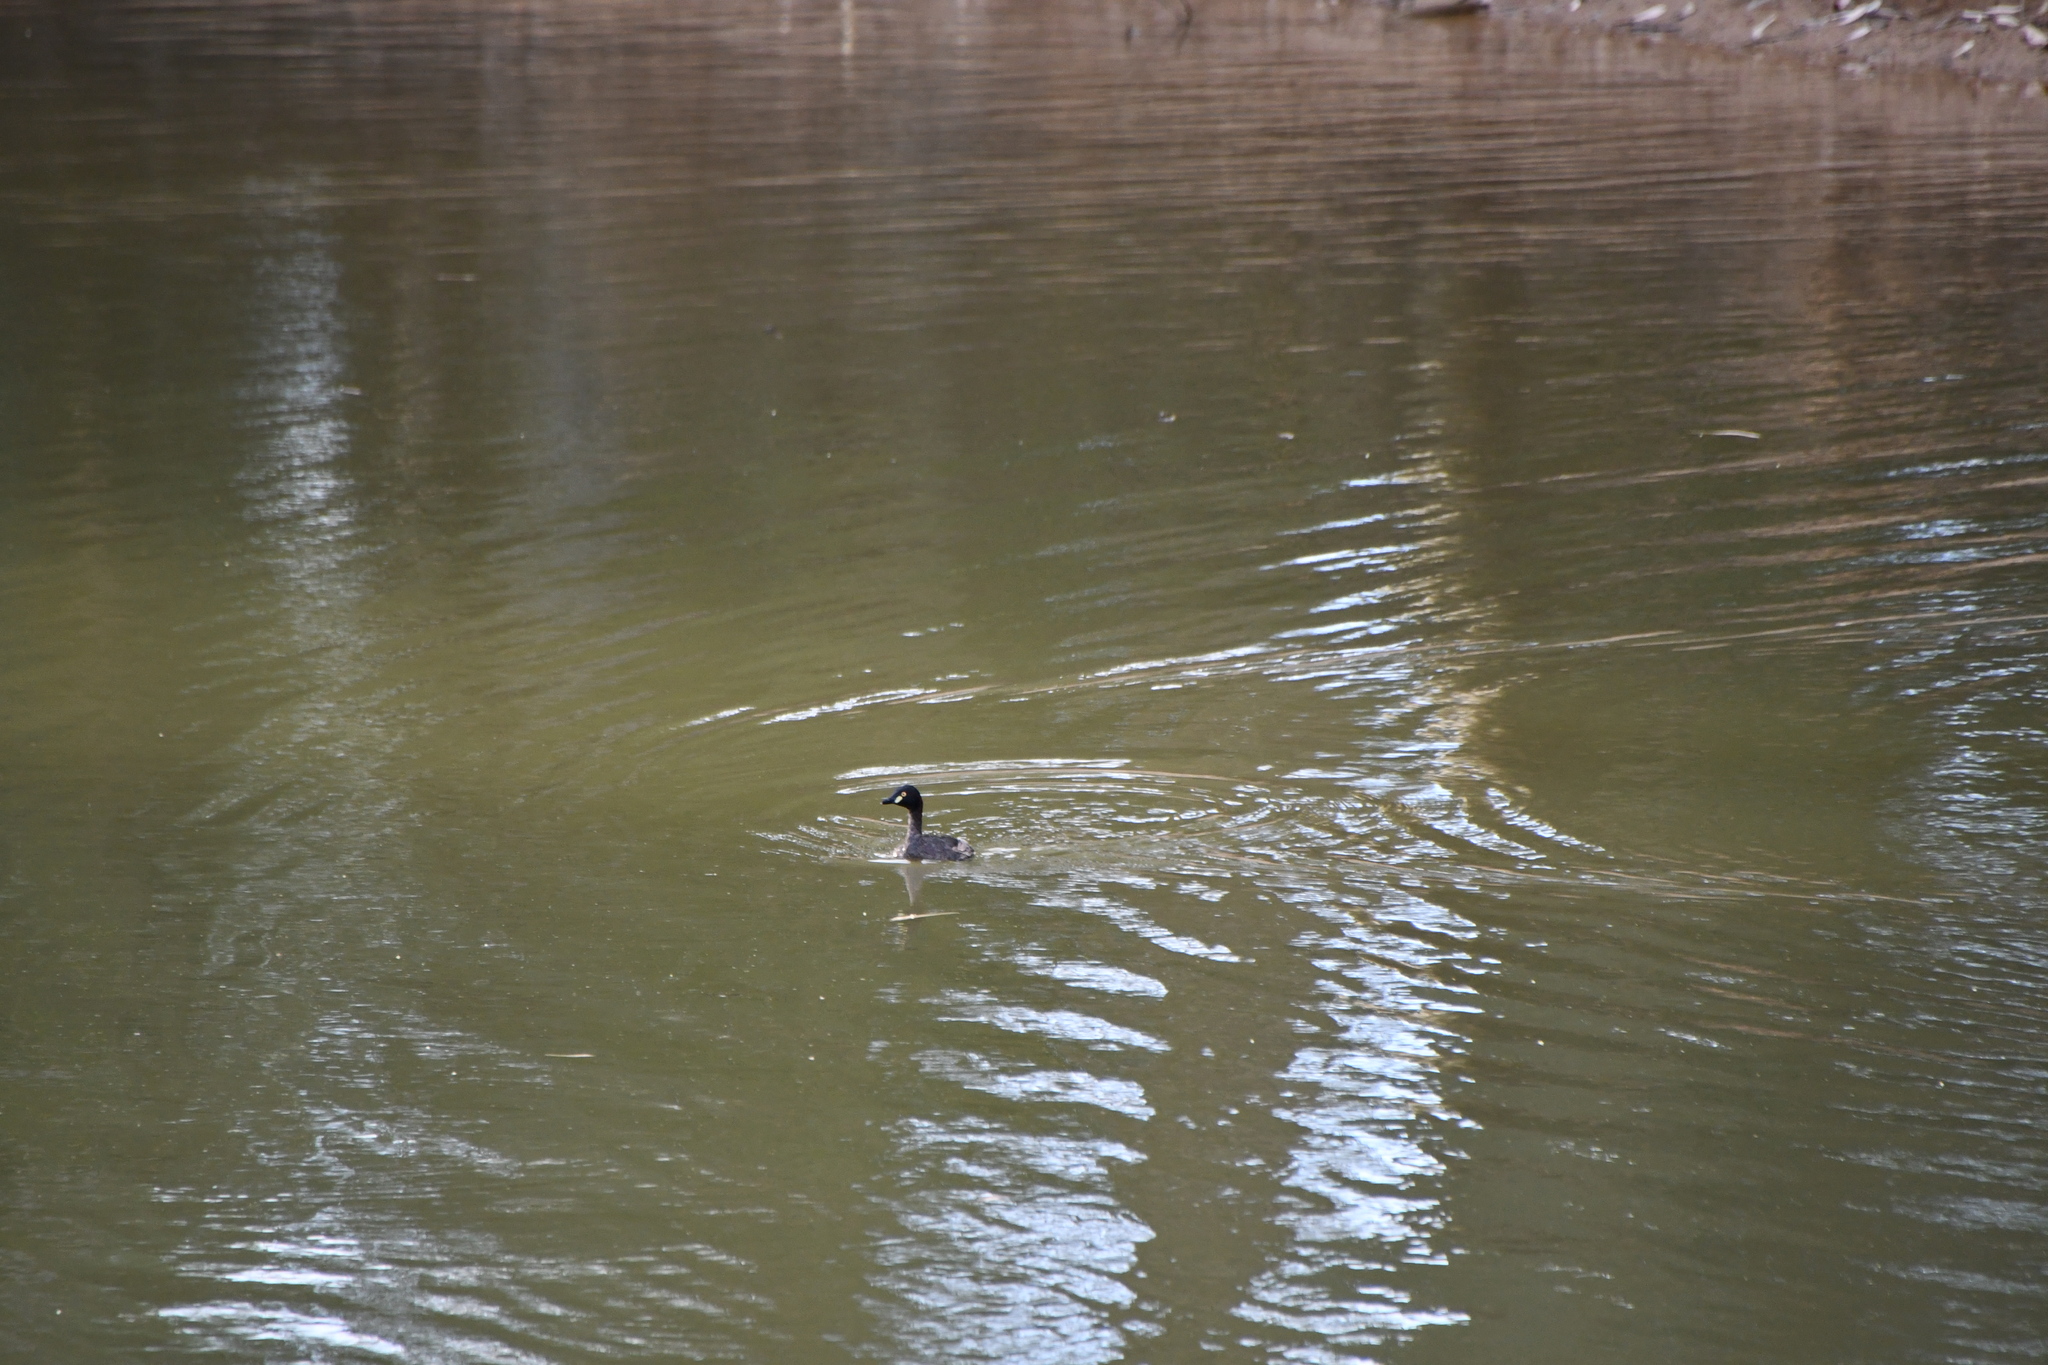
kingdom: Animalia
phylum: Chordata
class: Aves
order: Podicipediformes
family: Podicipedidae
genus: Tachybaptus
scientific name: Tachybaptus novaehollandiae
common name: Australasian grebe
